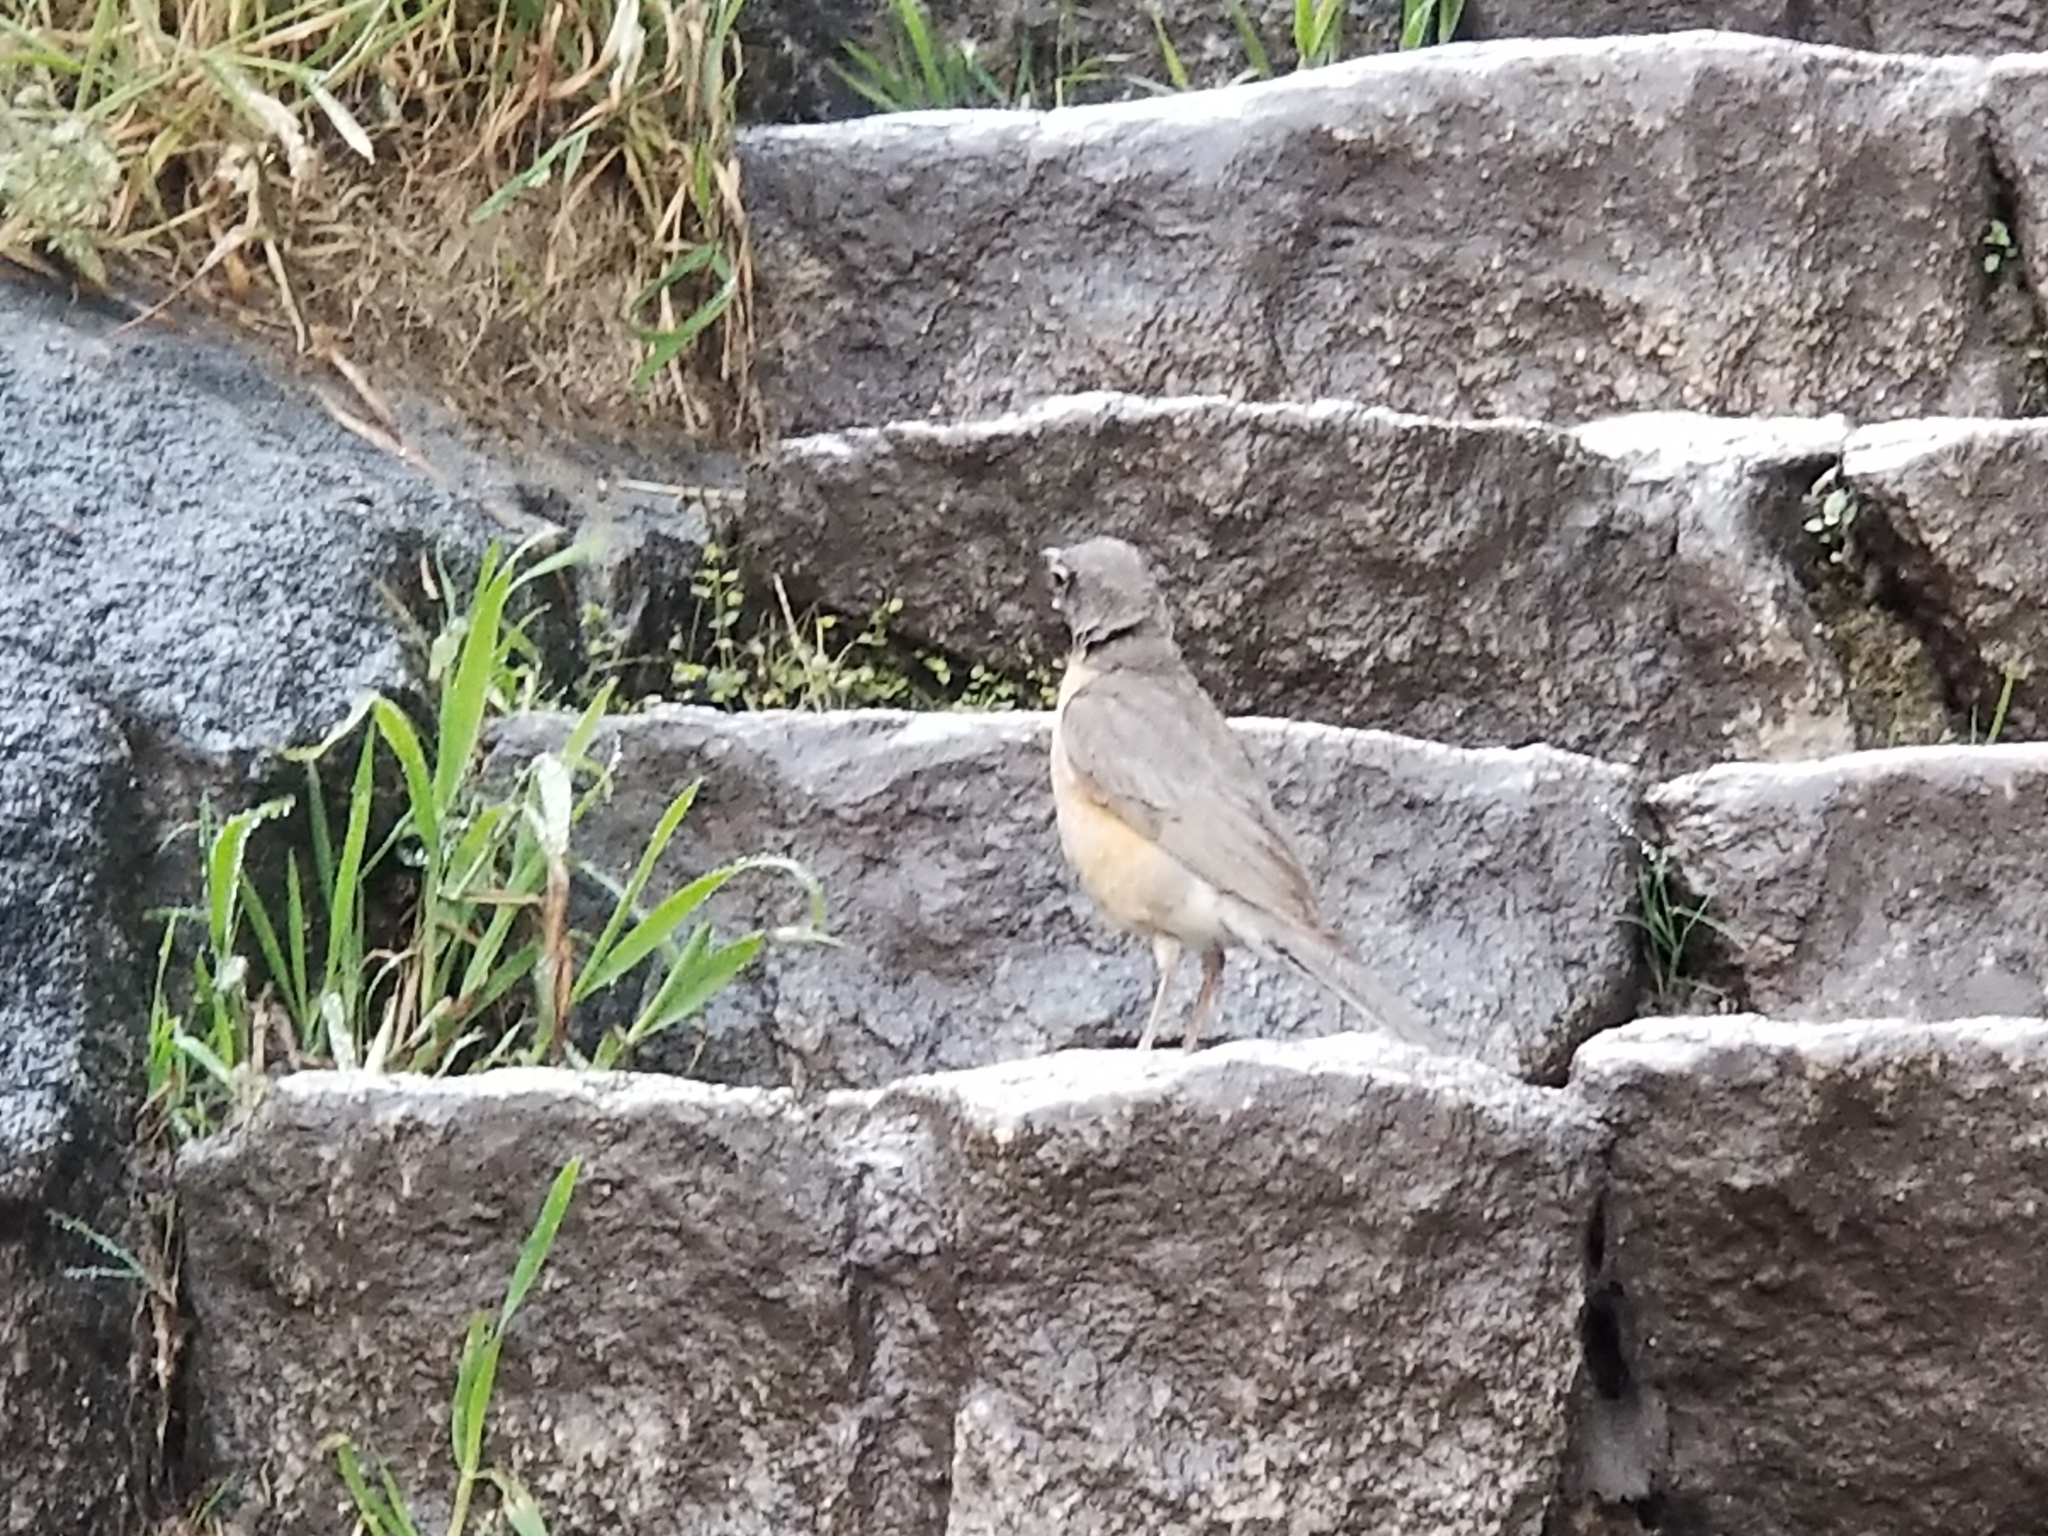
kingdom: Animalia
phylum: Chordata
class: Aves
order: Passeriformes
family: Turdidae
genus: Turdus
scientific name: Turdus migratorius
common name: American robin
